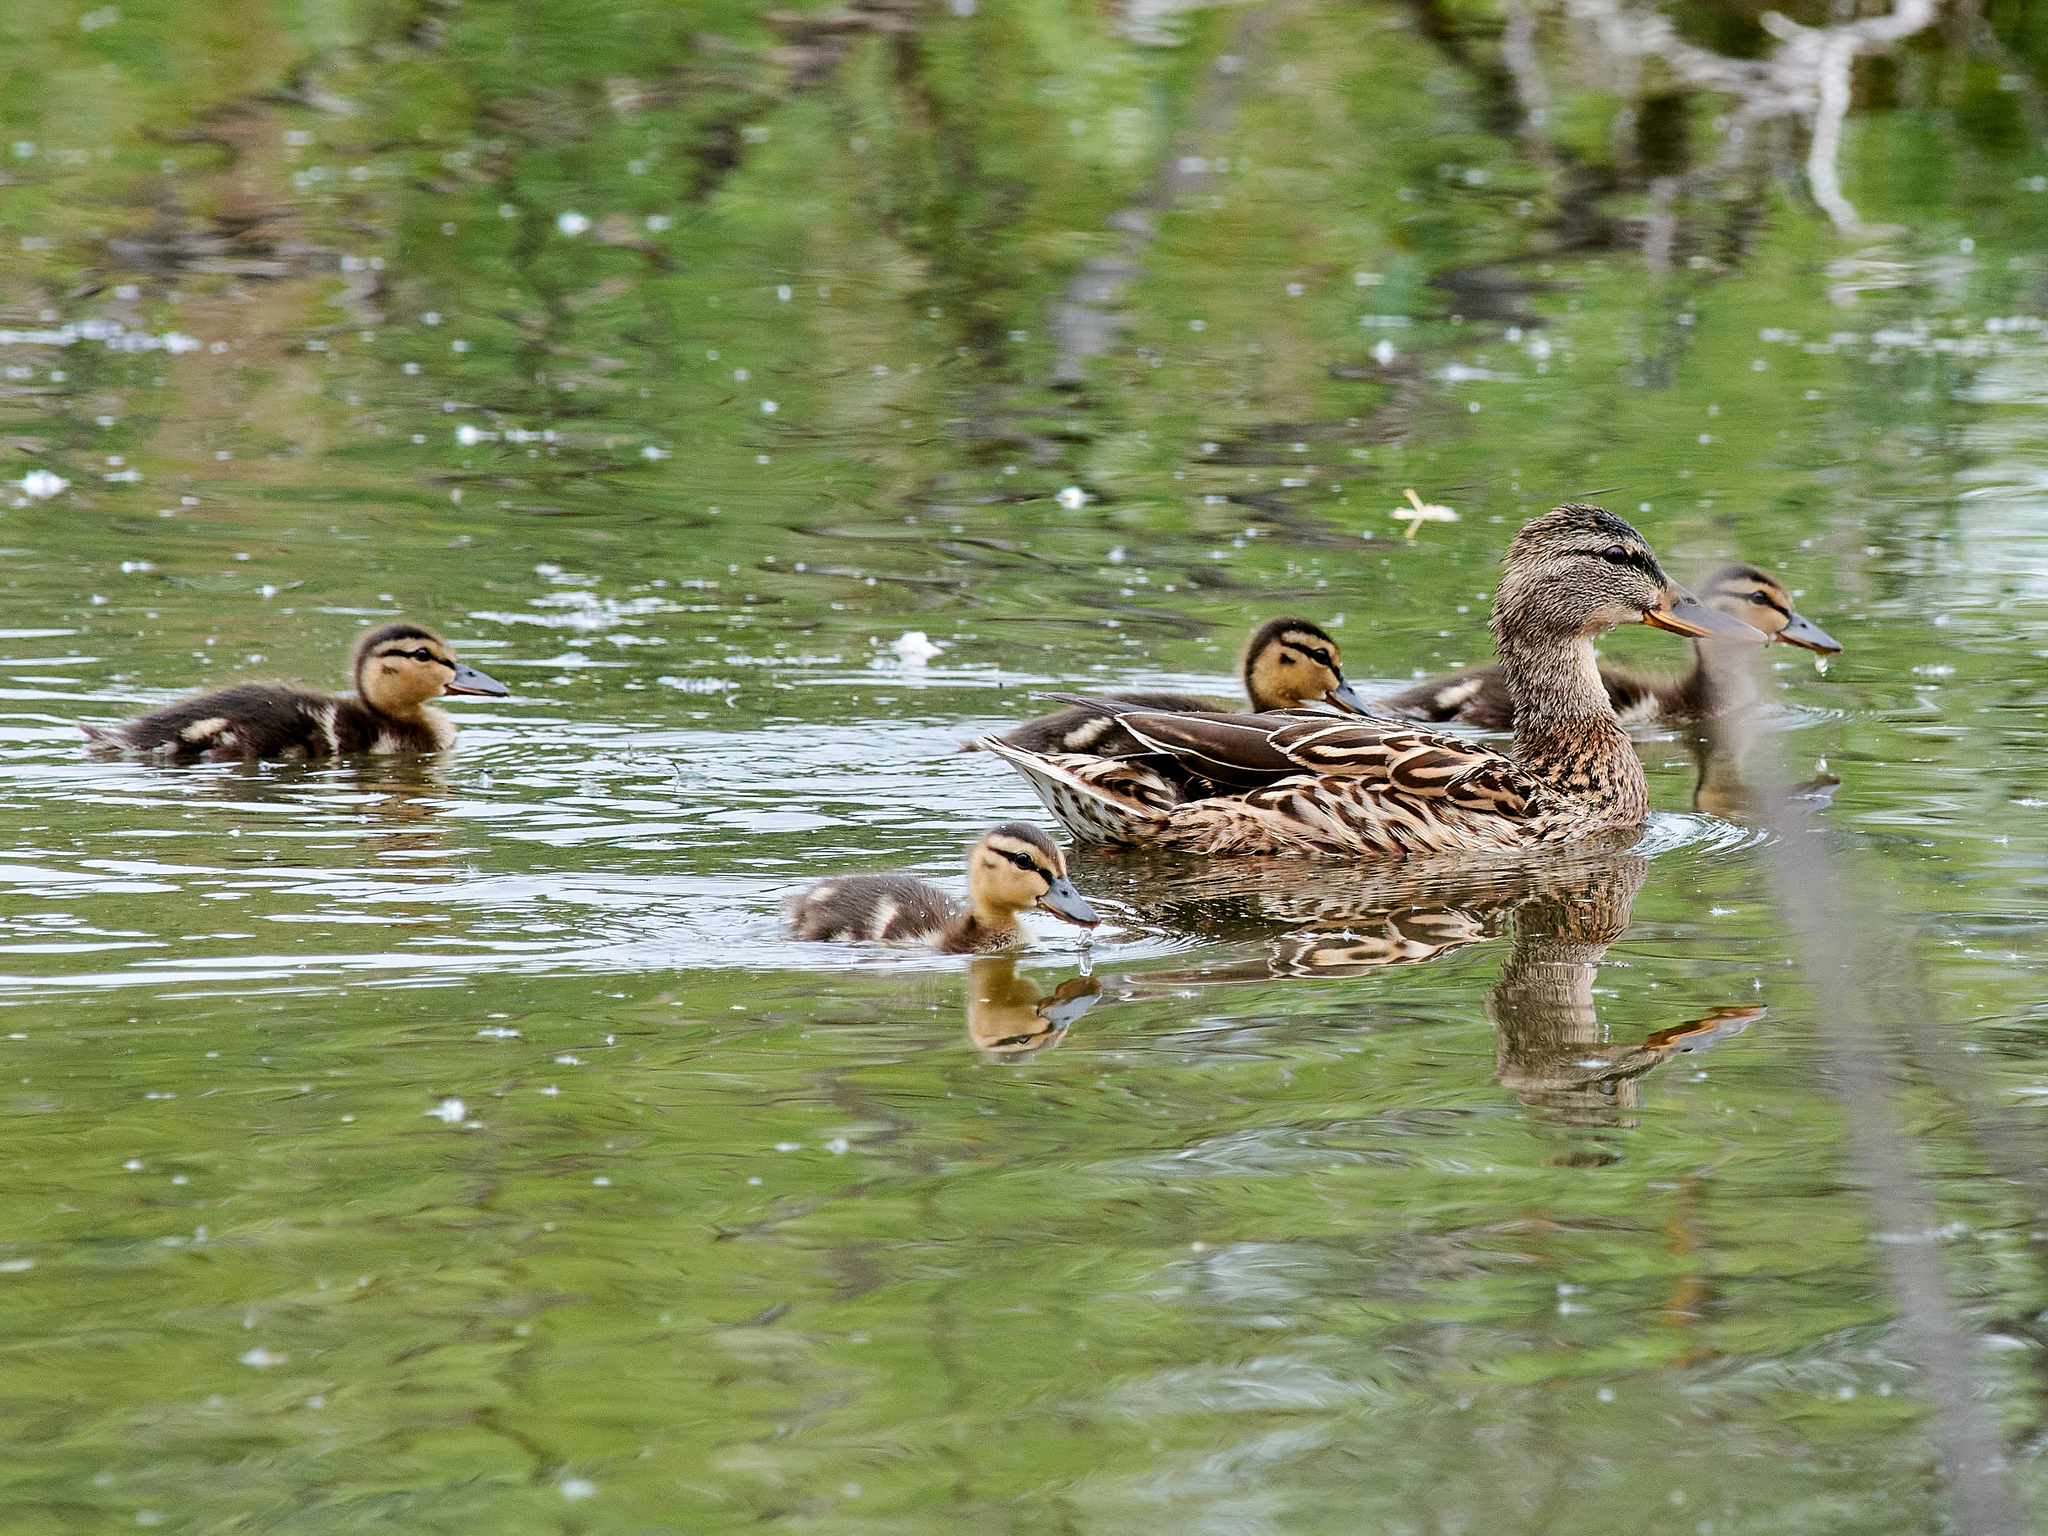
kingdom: Animalia
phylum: Chordata
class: Aves
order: Anseriformes
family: Anatidae
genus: Anas
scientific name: Anas platyrhynchos
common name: Mallard
